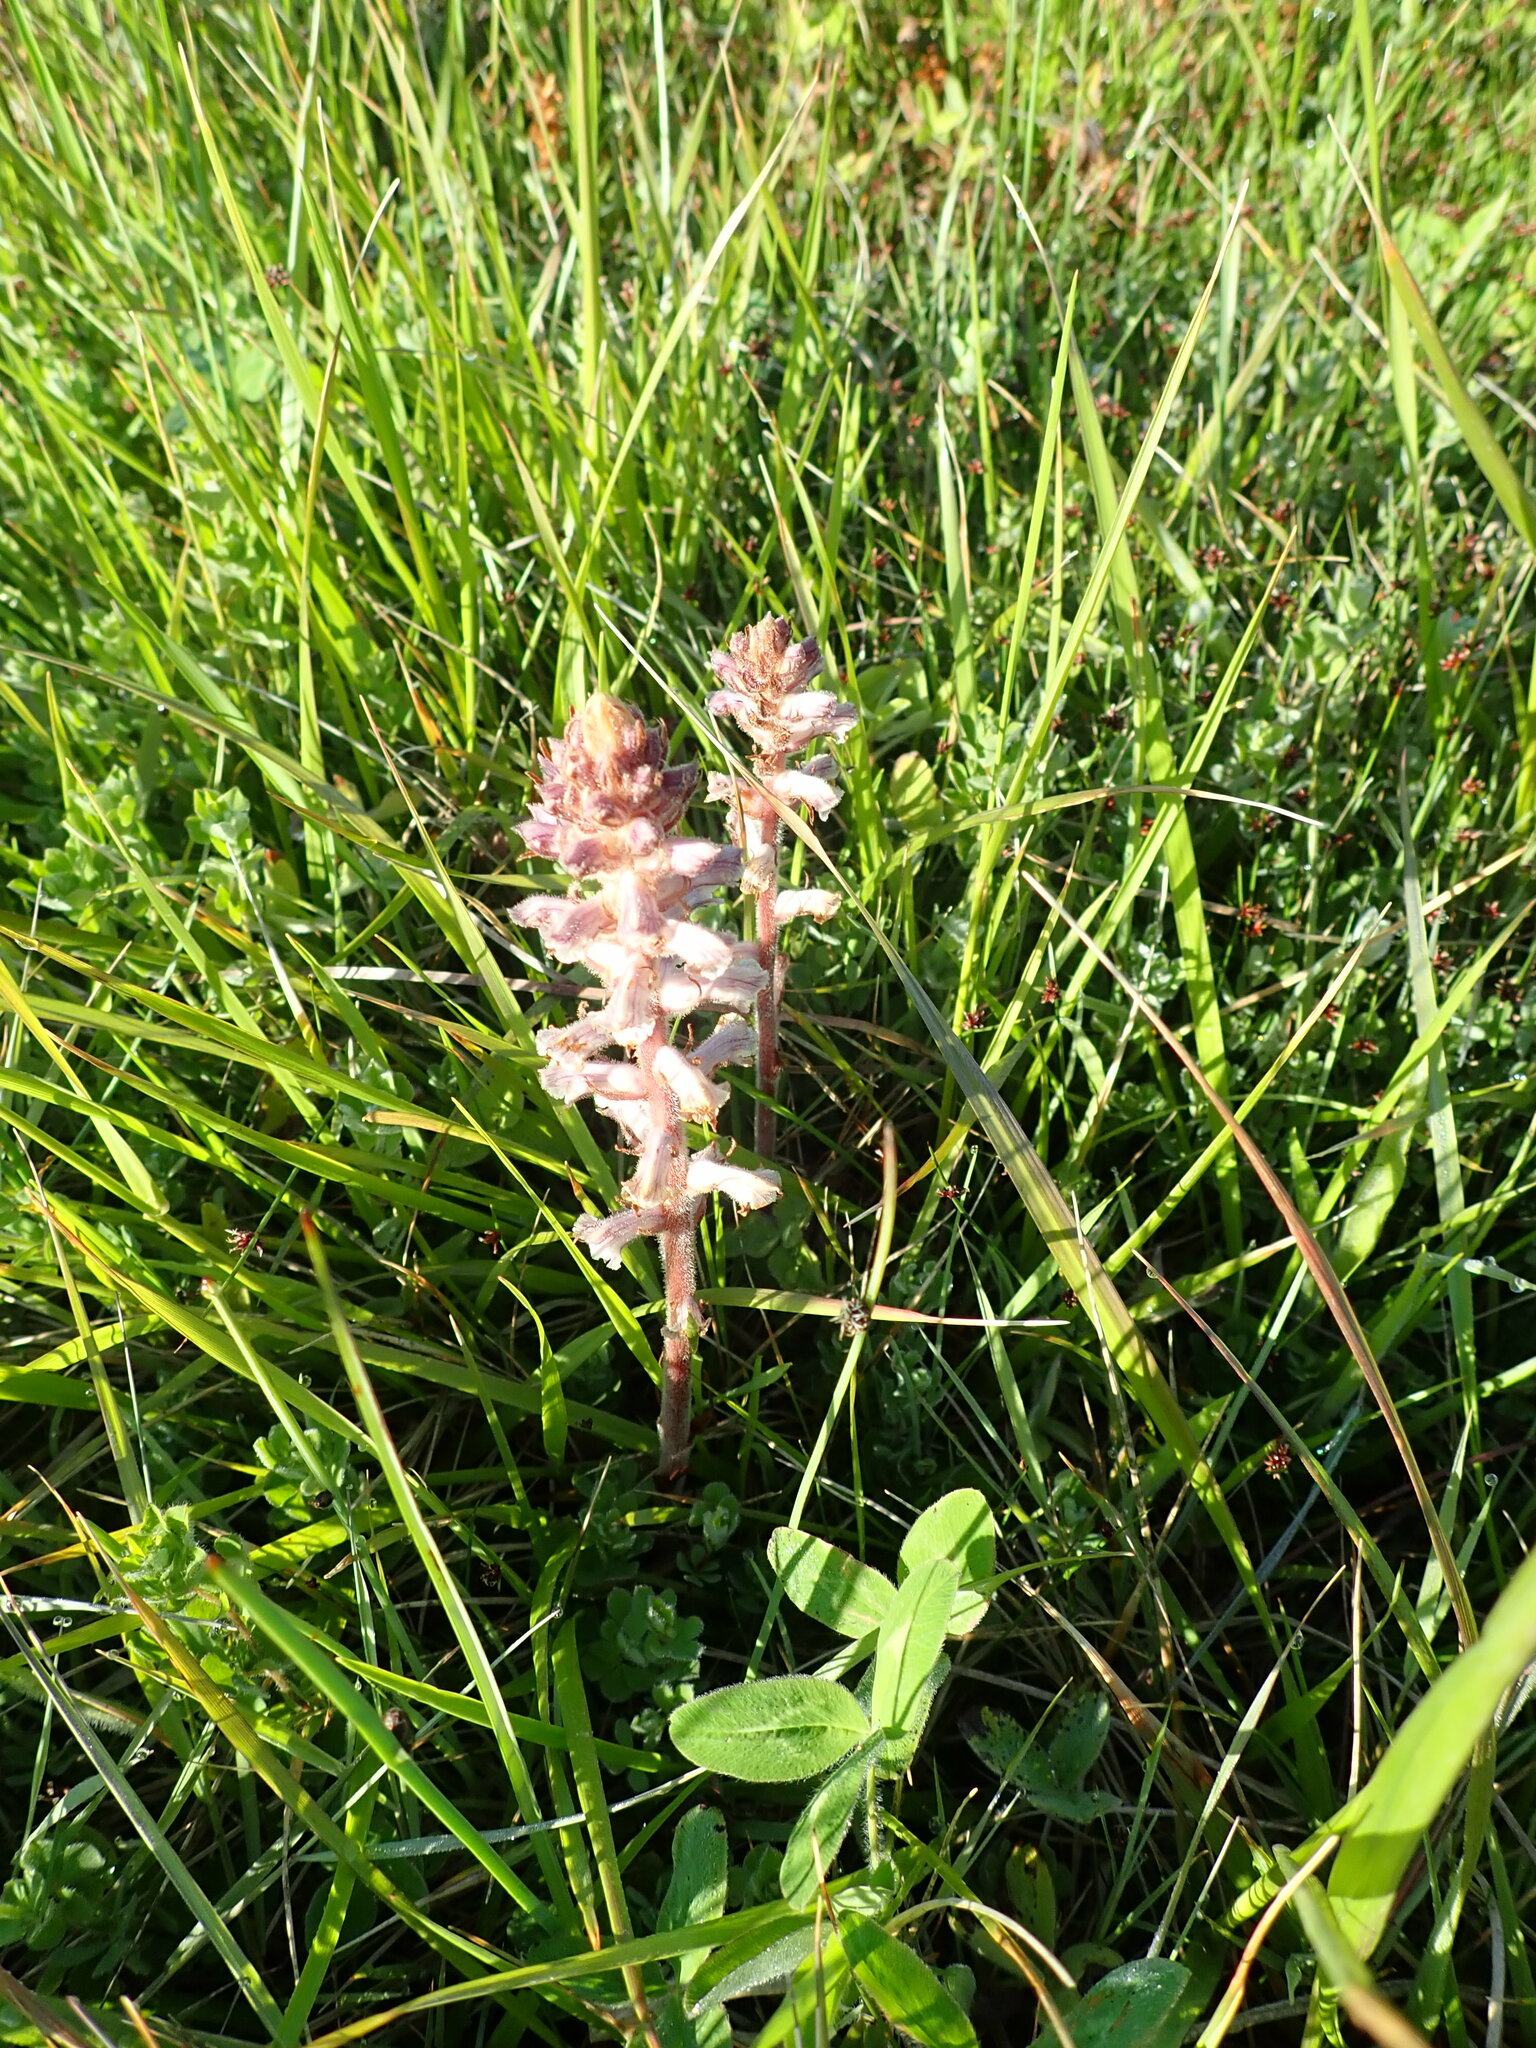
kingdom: Plantae
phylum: Tracheophyta
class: Magnoliopsida
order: Lamiales
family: Orobanchaceae
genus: Orobanche
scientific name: Orobanche minor
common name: Common broomrape
